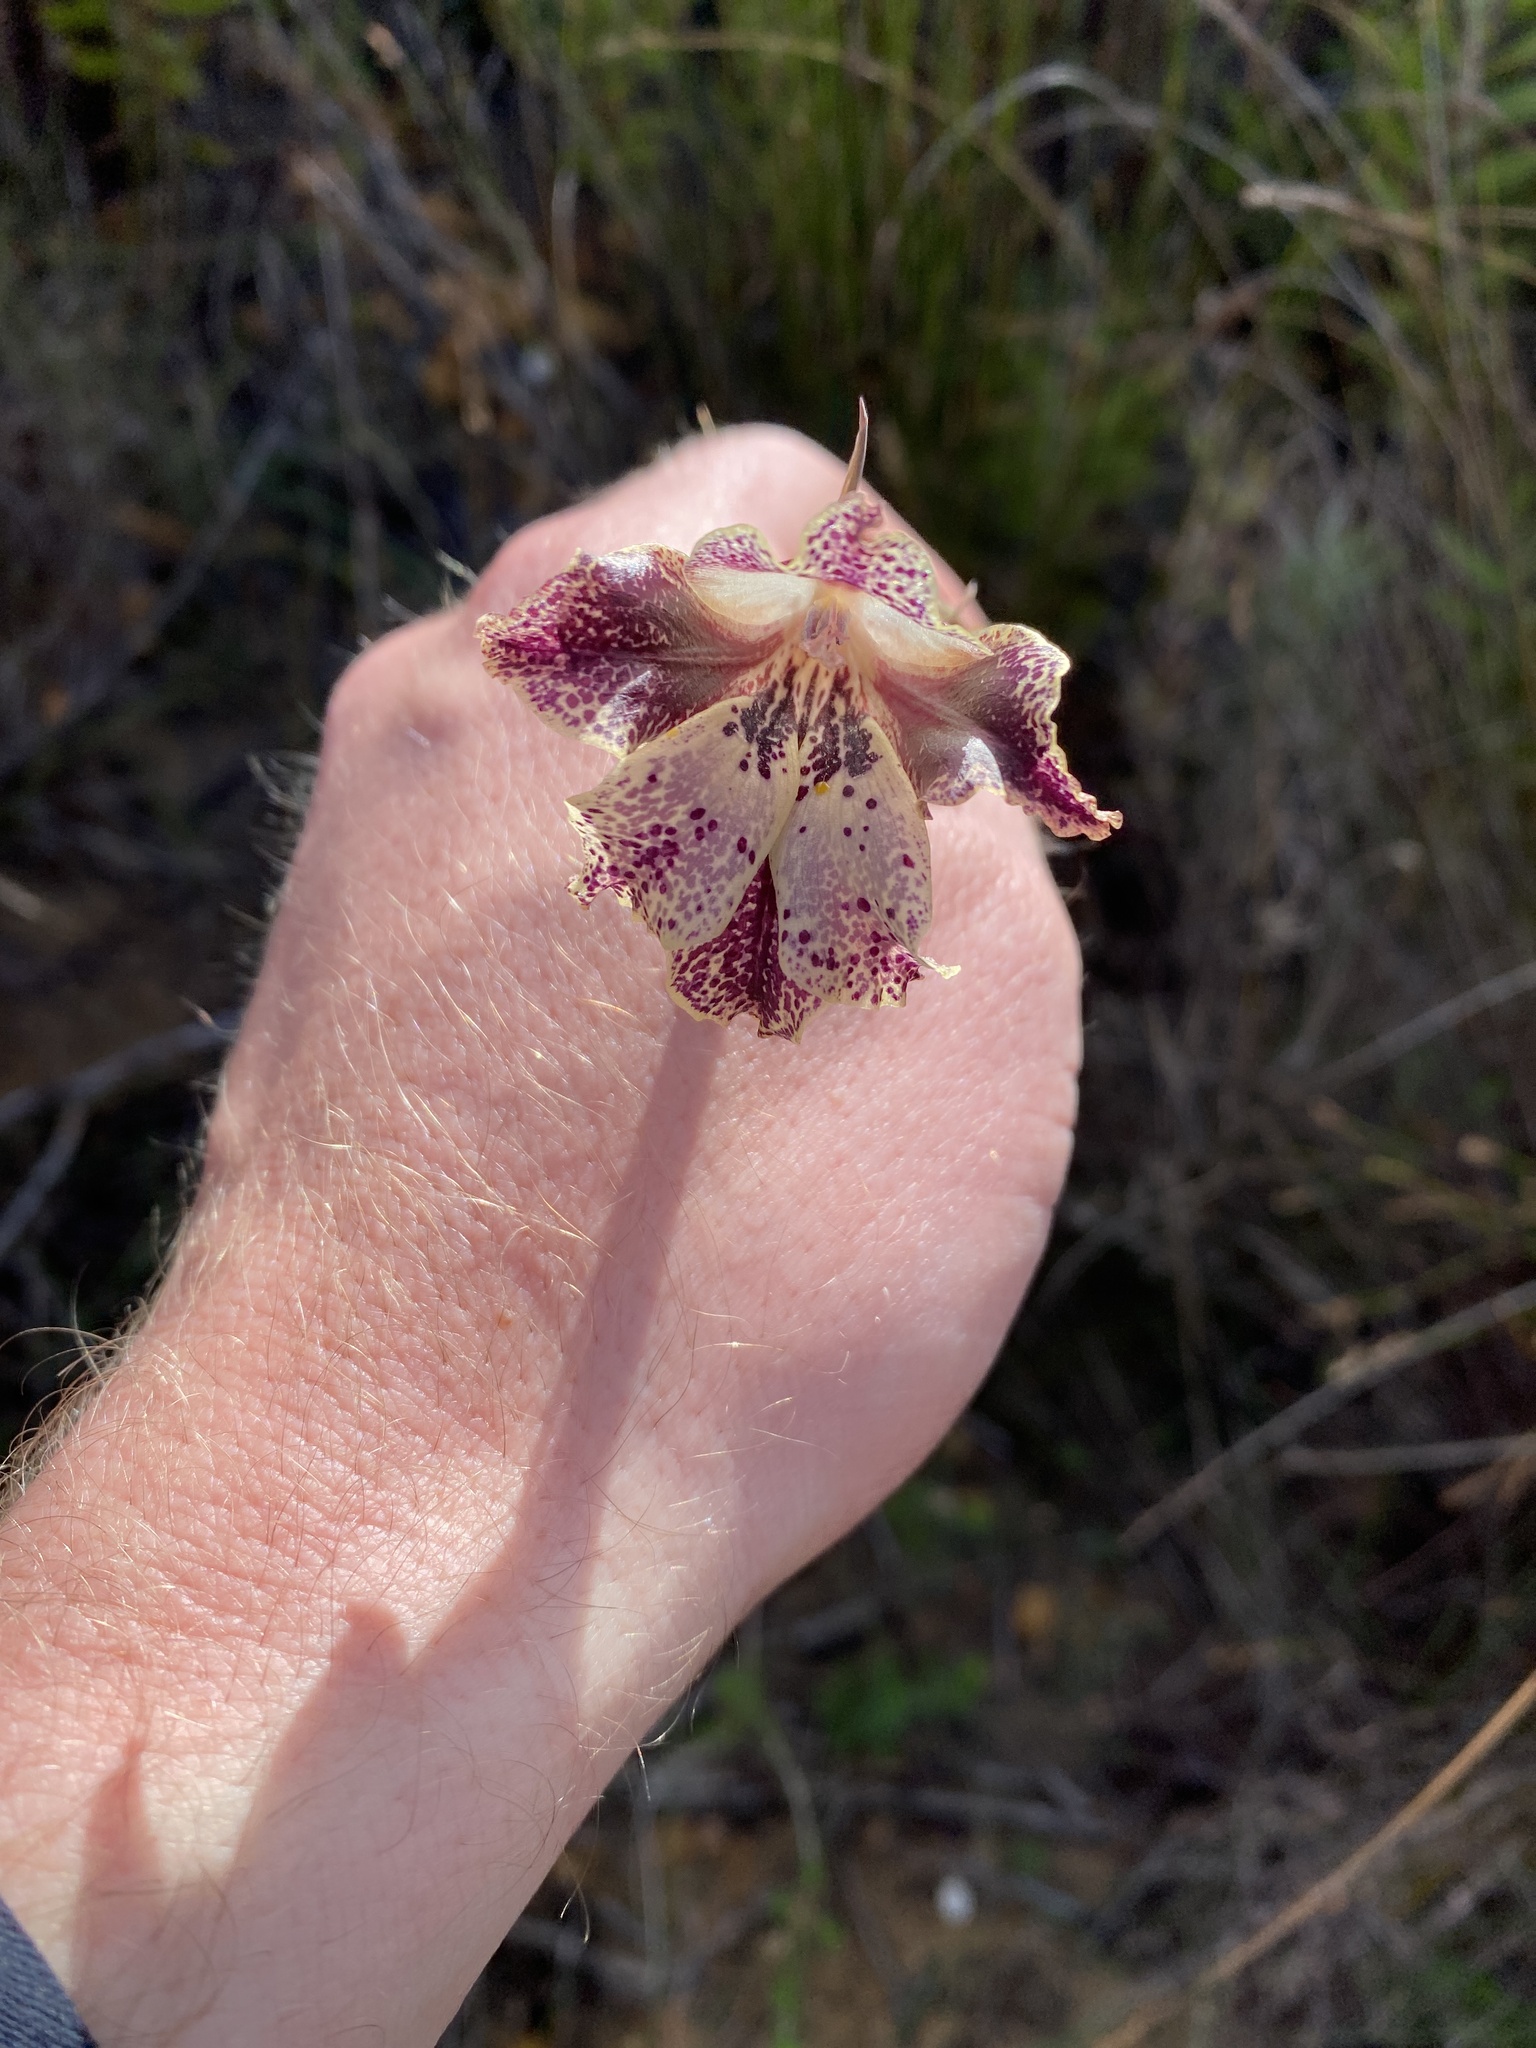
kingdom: Plantae
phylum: Tracheophyta
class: Liliopsida
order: Asparagales
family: Iridaceae
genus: Gladiolus
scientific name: Gladiolus maculatus
